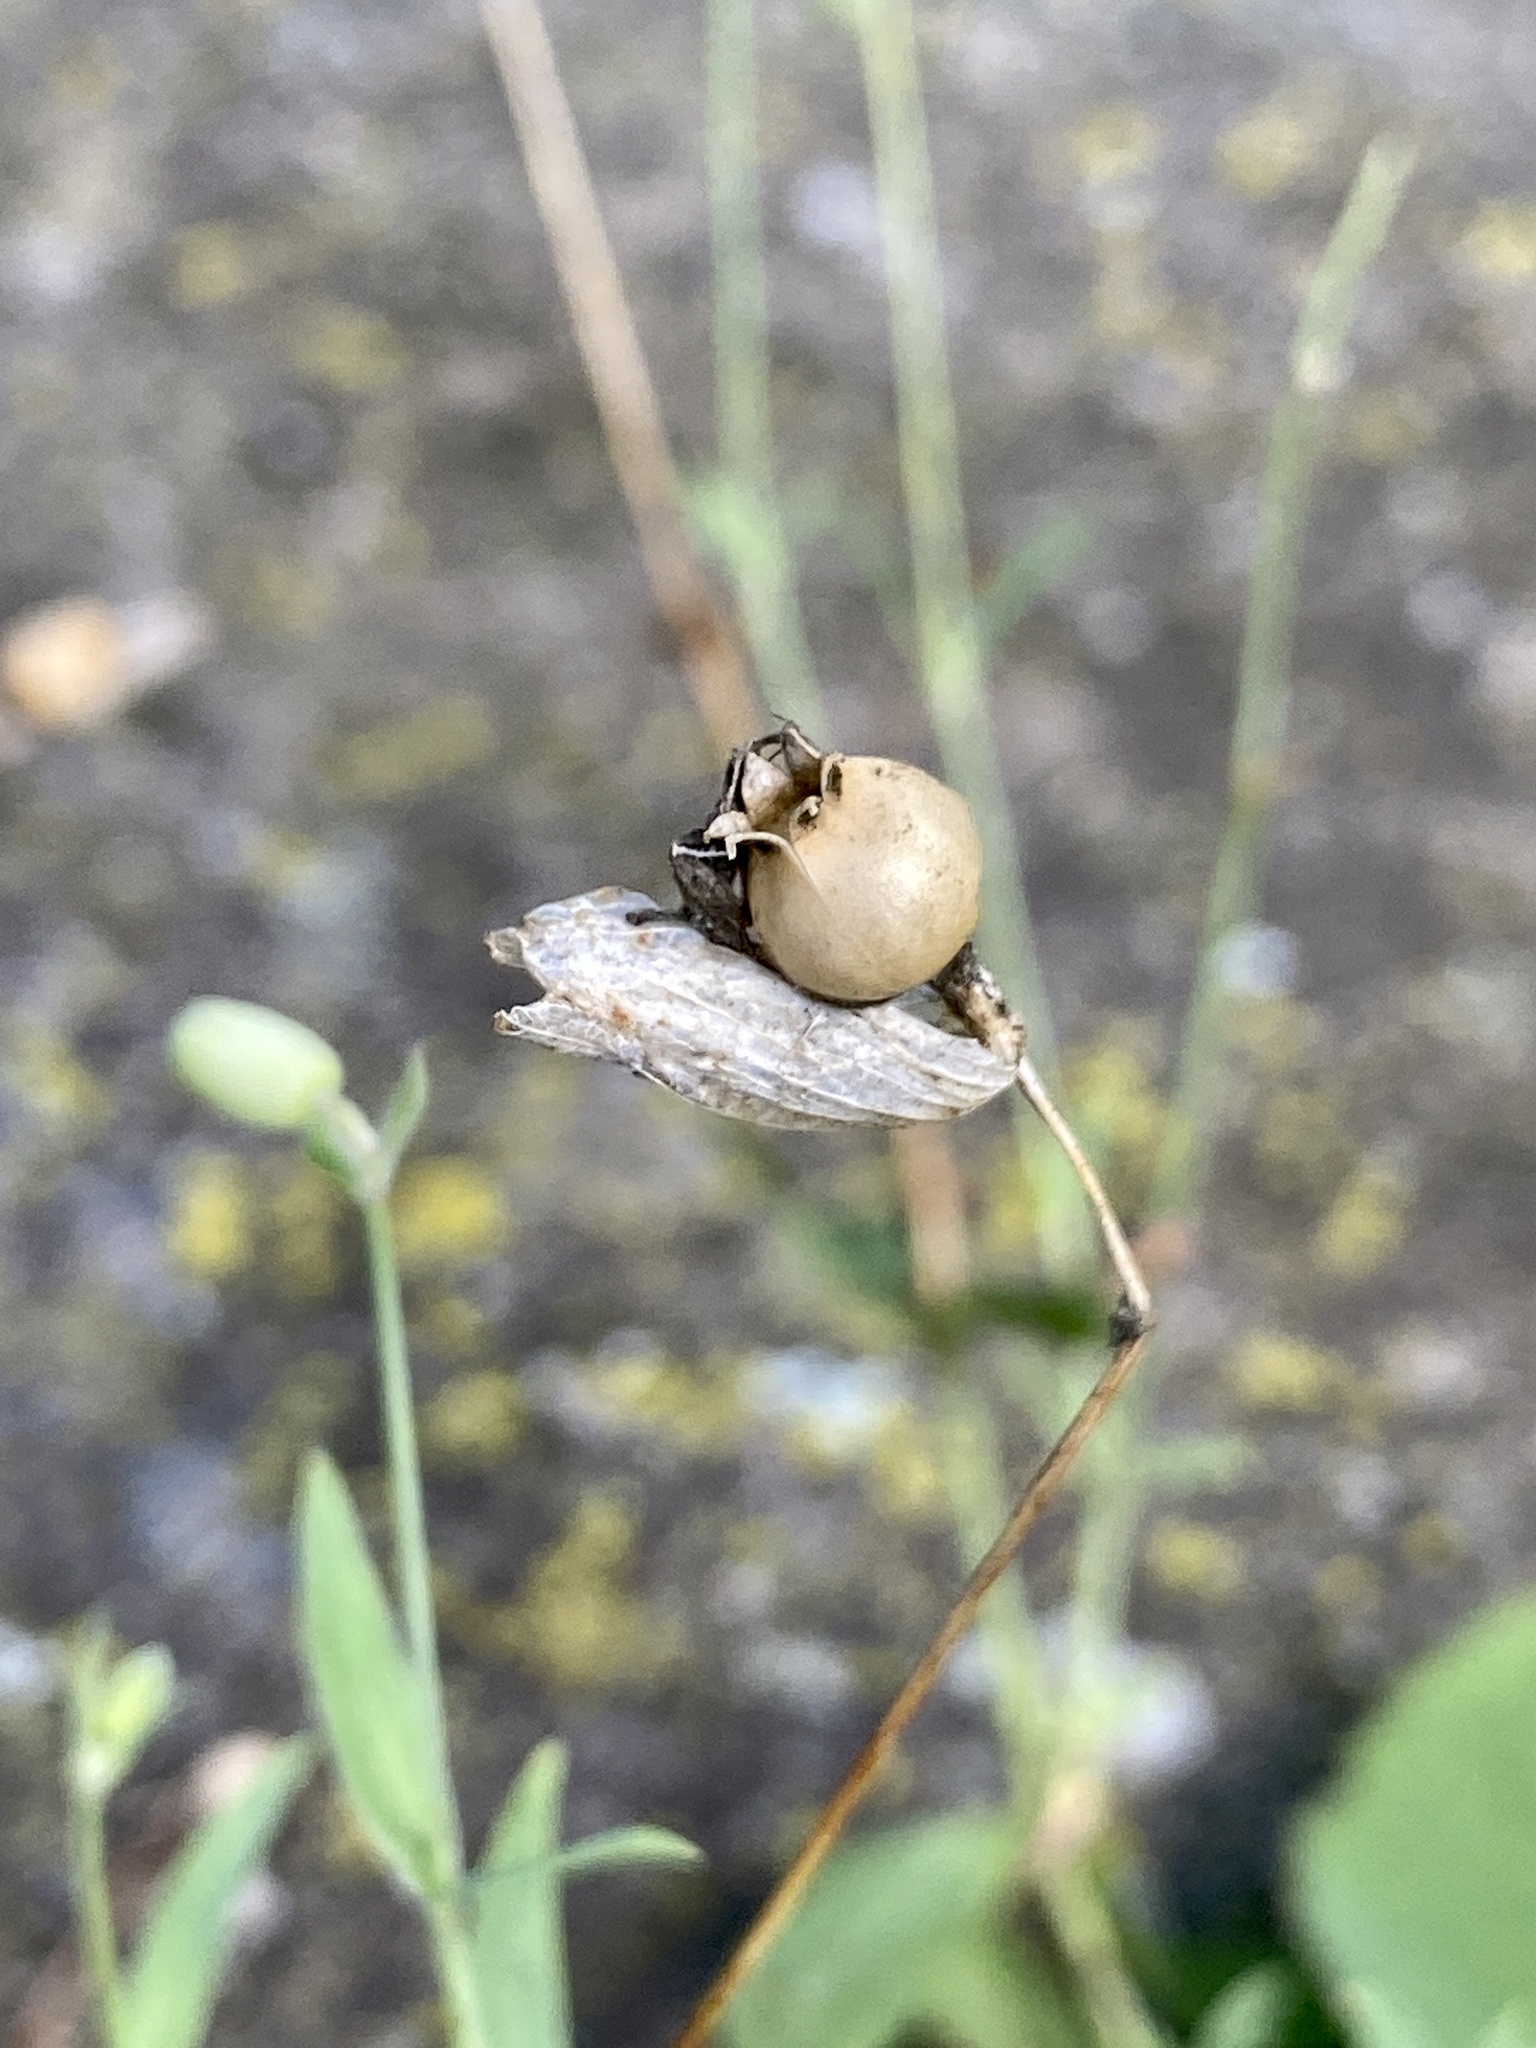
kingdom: Plantae
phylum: Tracheophyta
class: Magnoliopsida
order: Caryophyllales
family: Caryophyllaceae
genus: Silene
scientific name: Silene vulgaris
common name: Bladder campion
